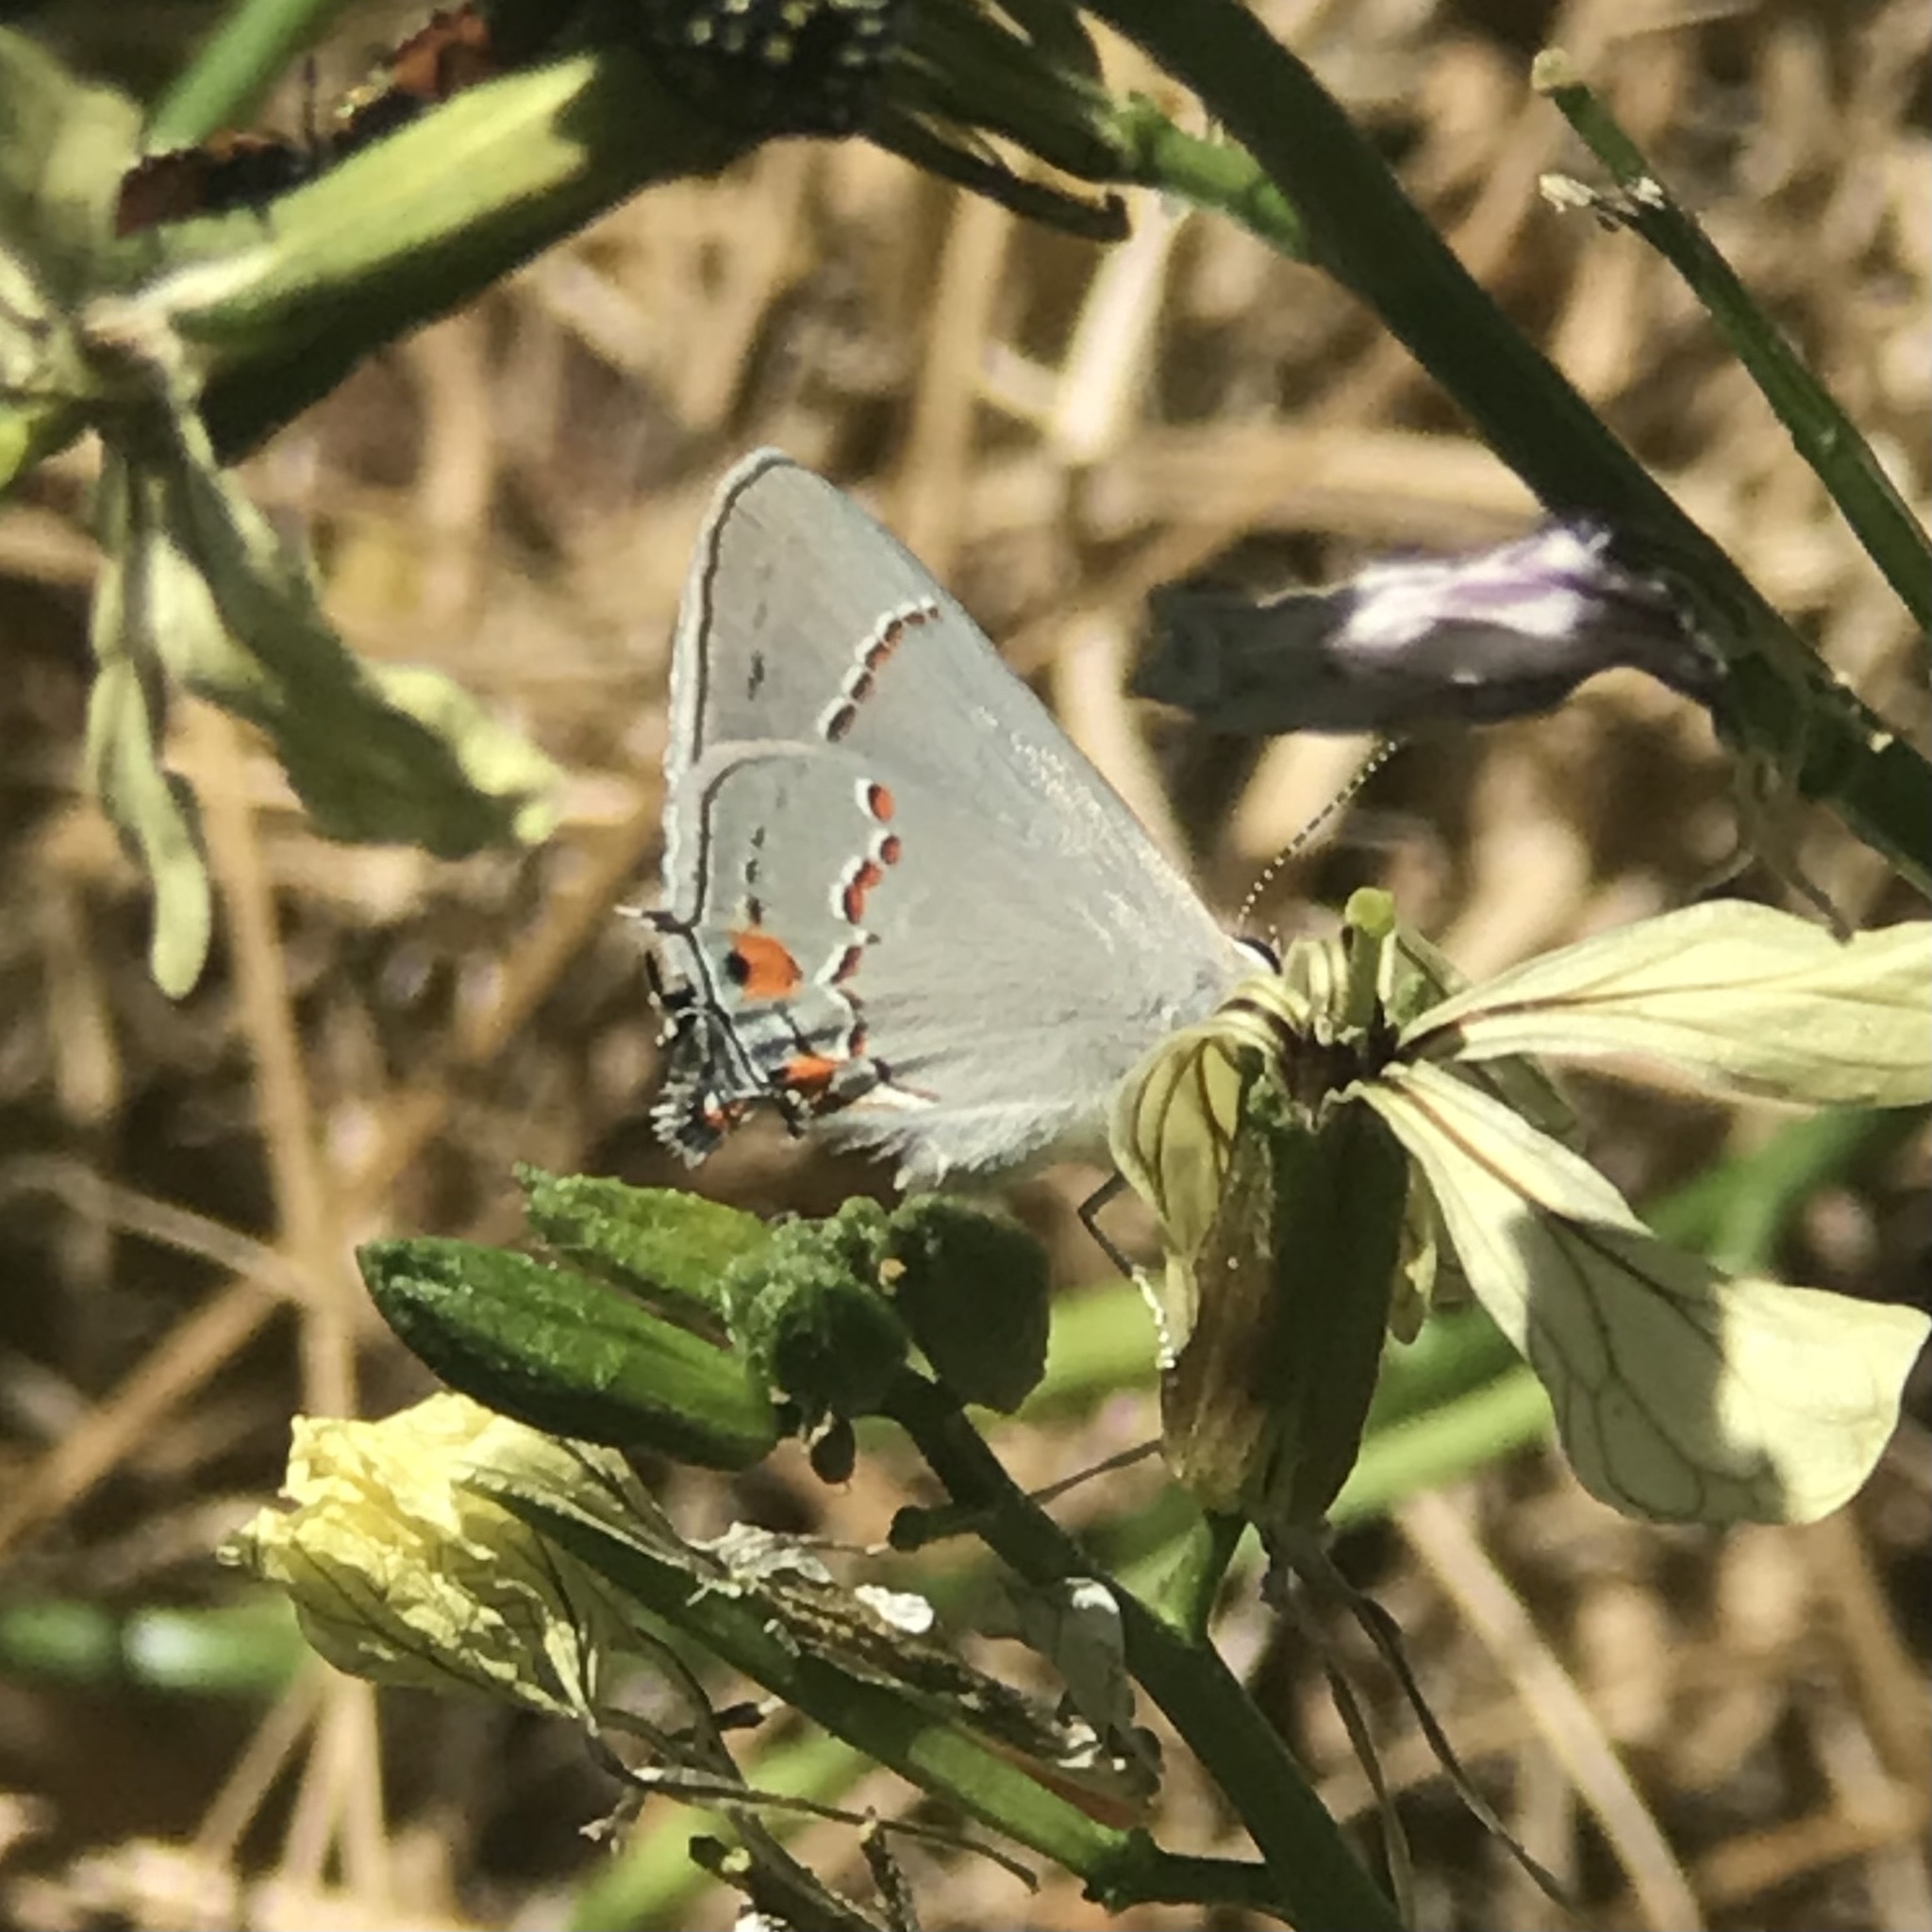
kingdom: Animalia
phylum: Arthropoda
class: Insecta
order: Lepidoptera
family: Lycaenidae
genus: Strymon
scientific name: Strymon melinus
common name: Gray hairstreak
